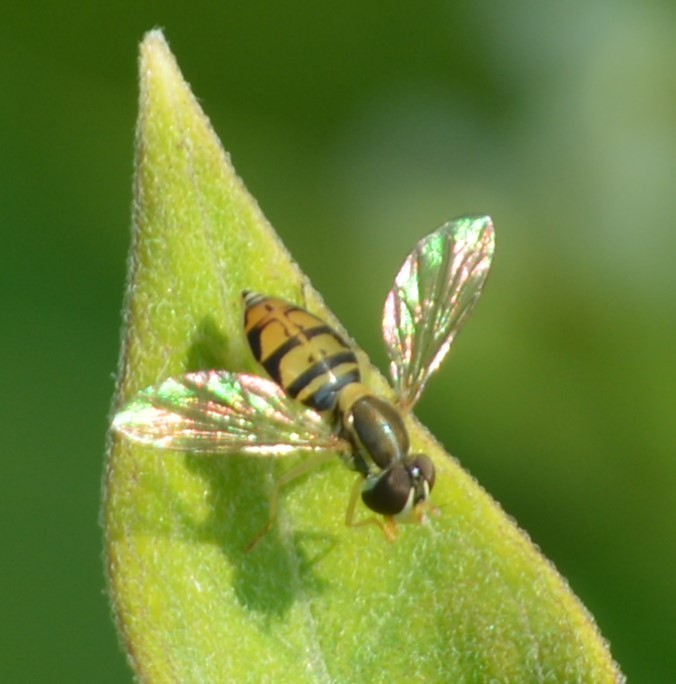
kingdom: Animalia
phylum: Arthropoda
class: Insecta
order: Diptera
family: Syrphidae
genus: Toxomerus
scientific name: Toxomerus marginatus
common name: Syrphid fly
